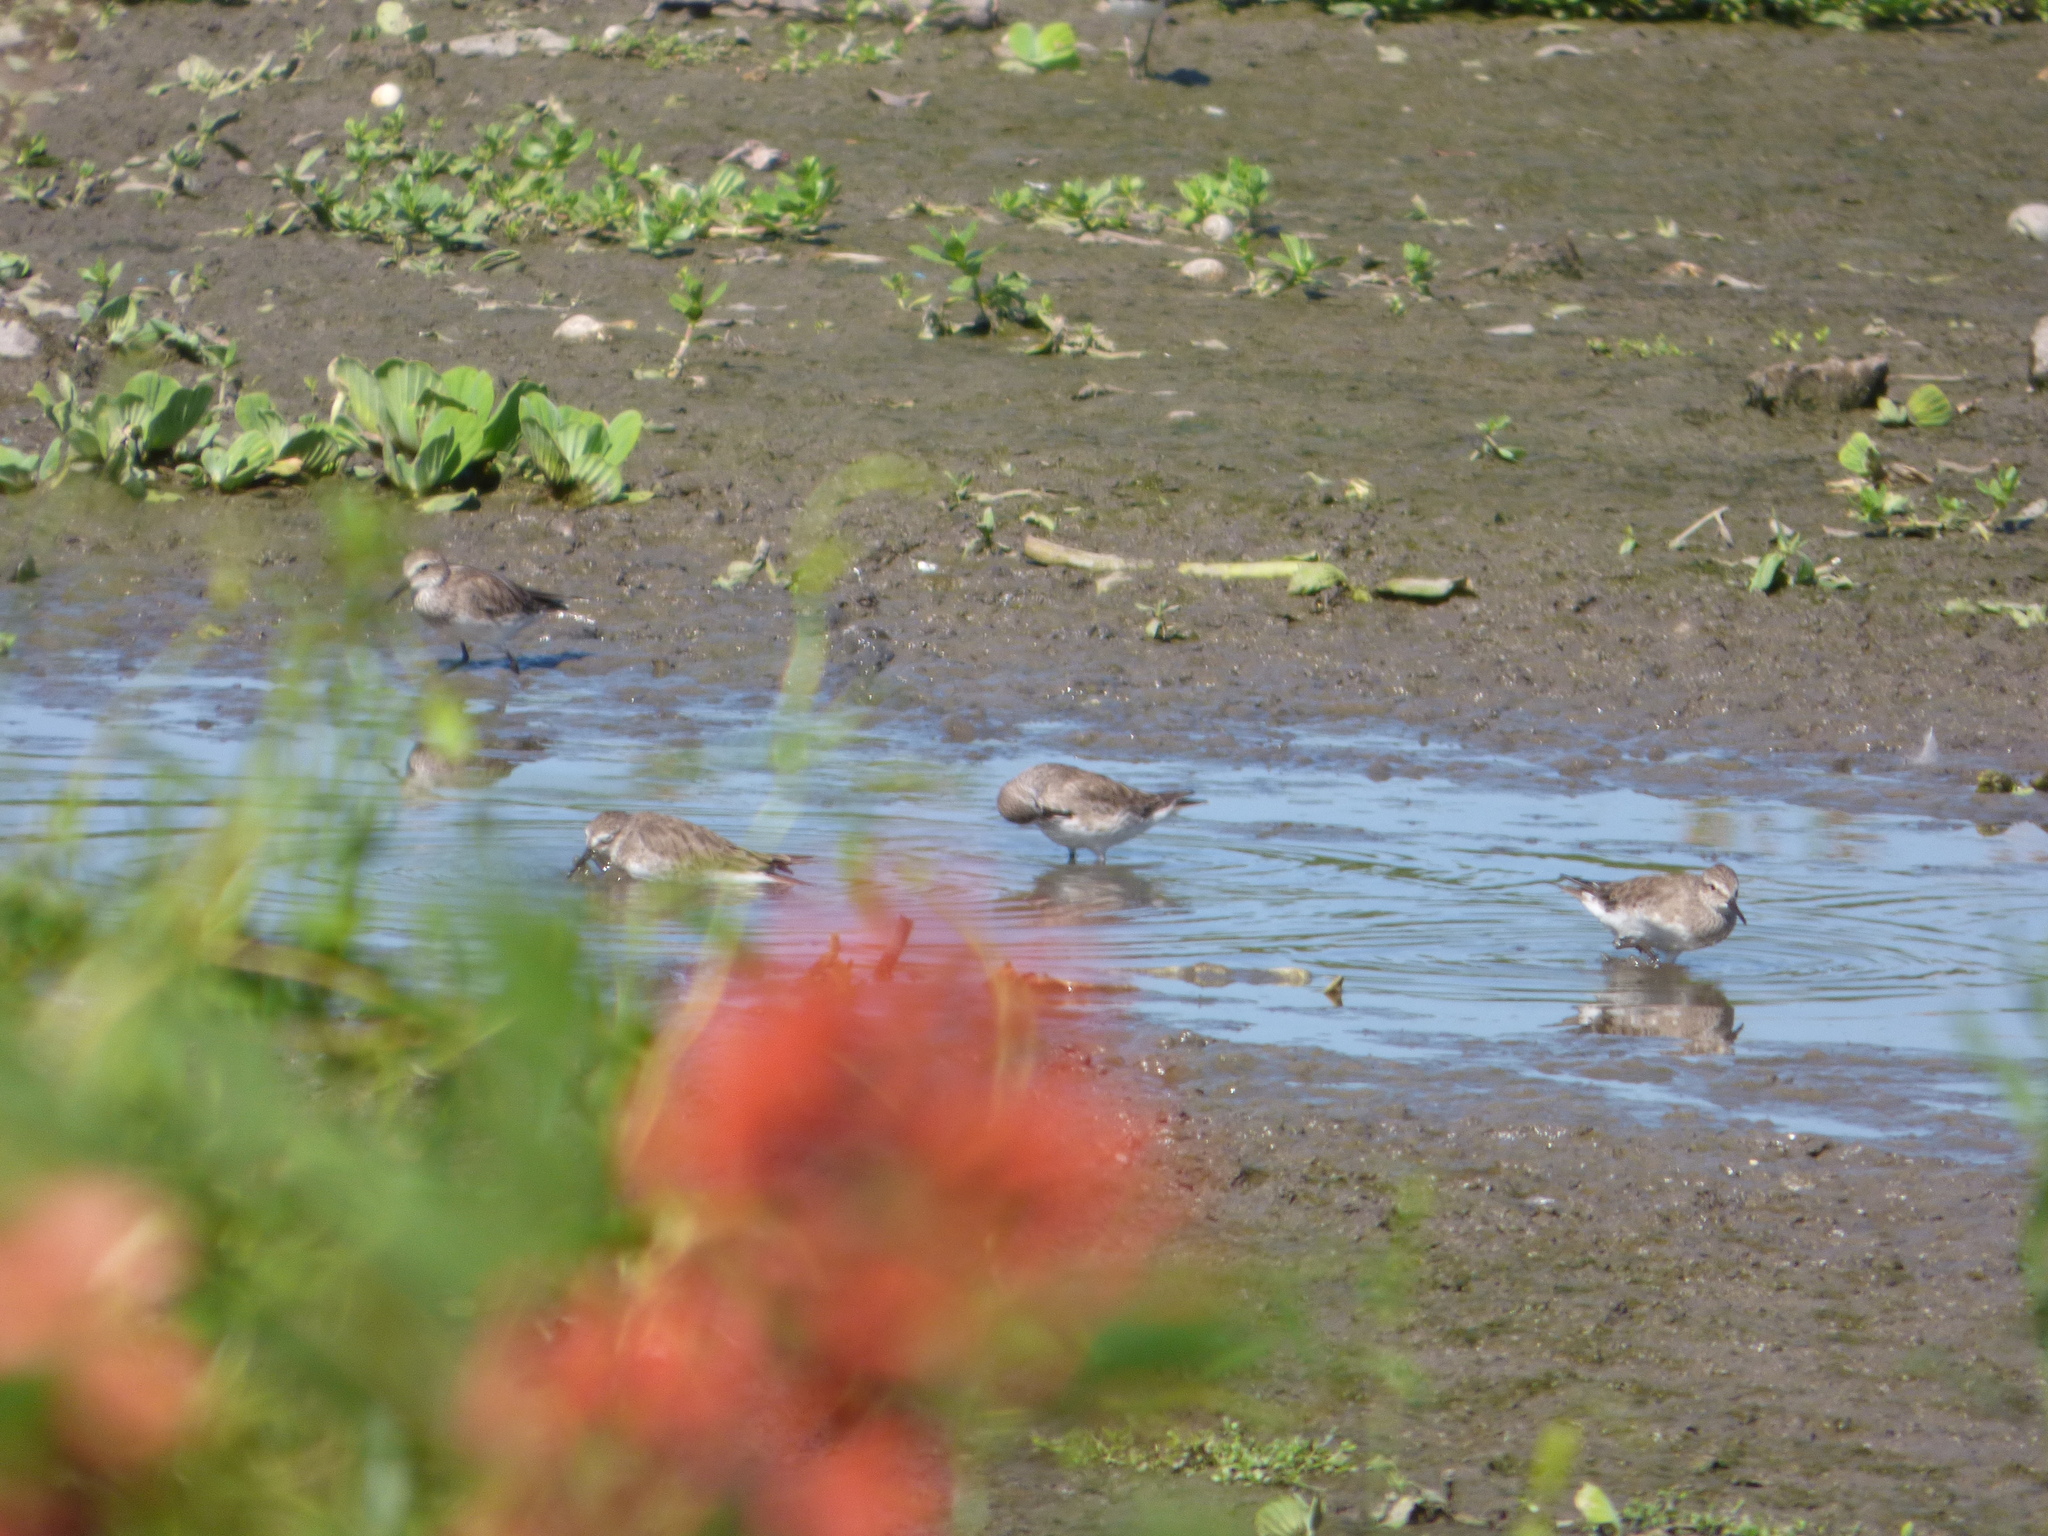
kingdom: Animalia
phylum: Chordata
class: Aves
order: Charadriiformes
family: Scolopacidae
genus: Calidris
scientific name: Calidris fuscicollis
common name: White-rumped sandpiper
